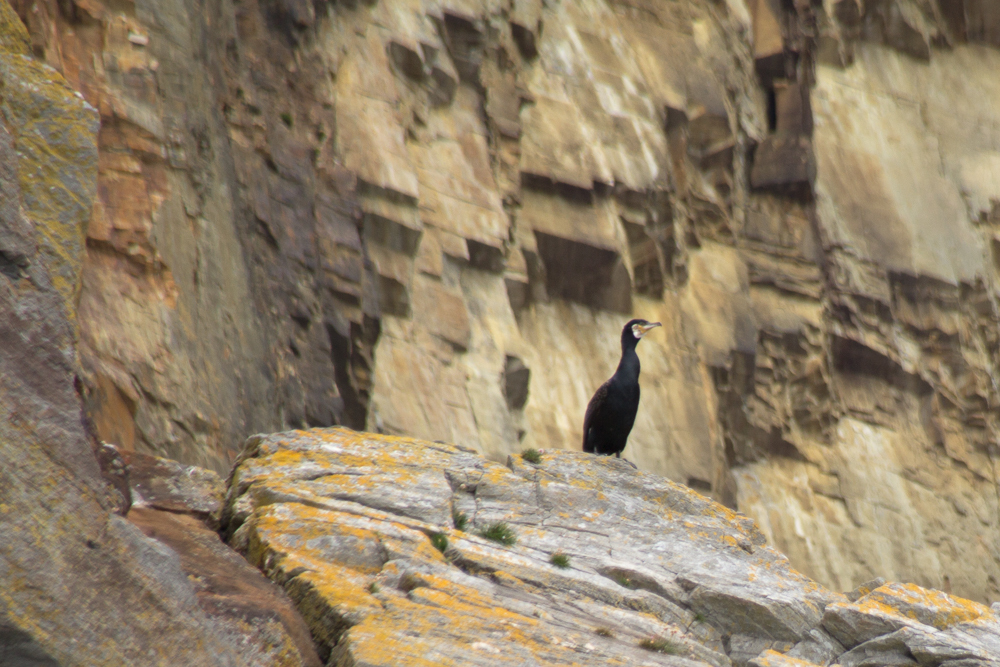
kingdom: Animalia
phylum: Chordata
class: Aves
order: Suliformes
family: Phalacrocoracidae
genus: Phalacrocorax
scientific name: Phalacrocorax carbo
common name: Great cormorant
